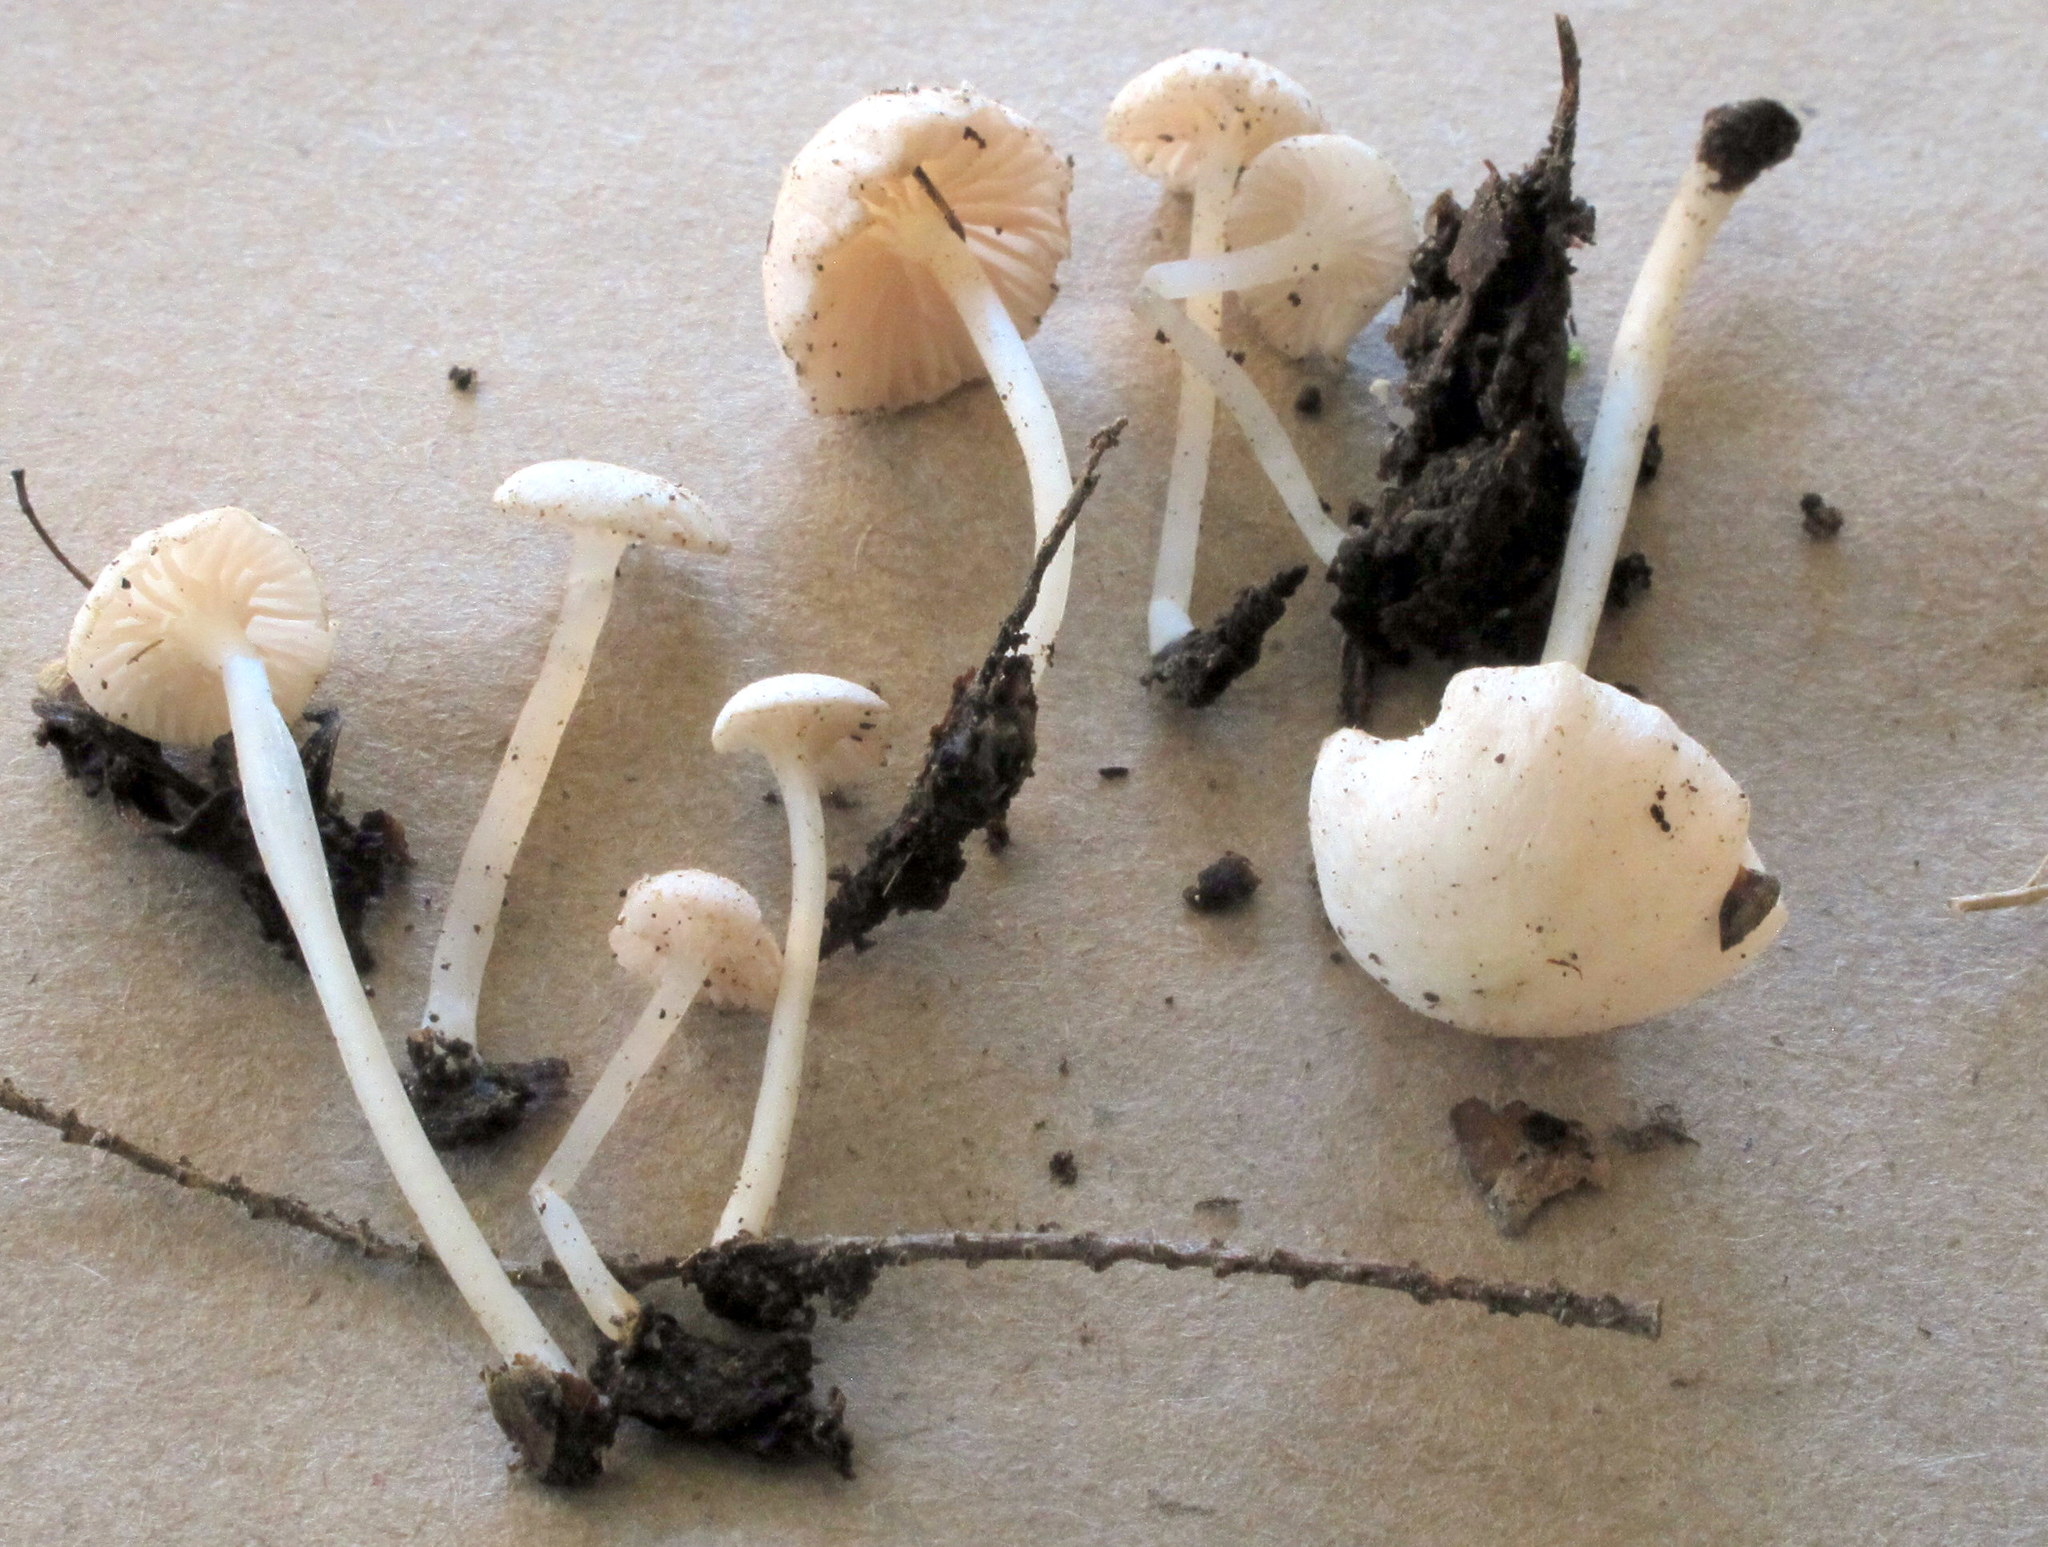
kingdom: Fungi
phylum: Basidiomycota
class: Agaricomycetes
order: Agaricales
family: Entolomataceae
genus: Entoloma
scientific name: Entoloma sericellum
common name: Cream pinkgill
